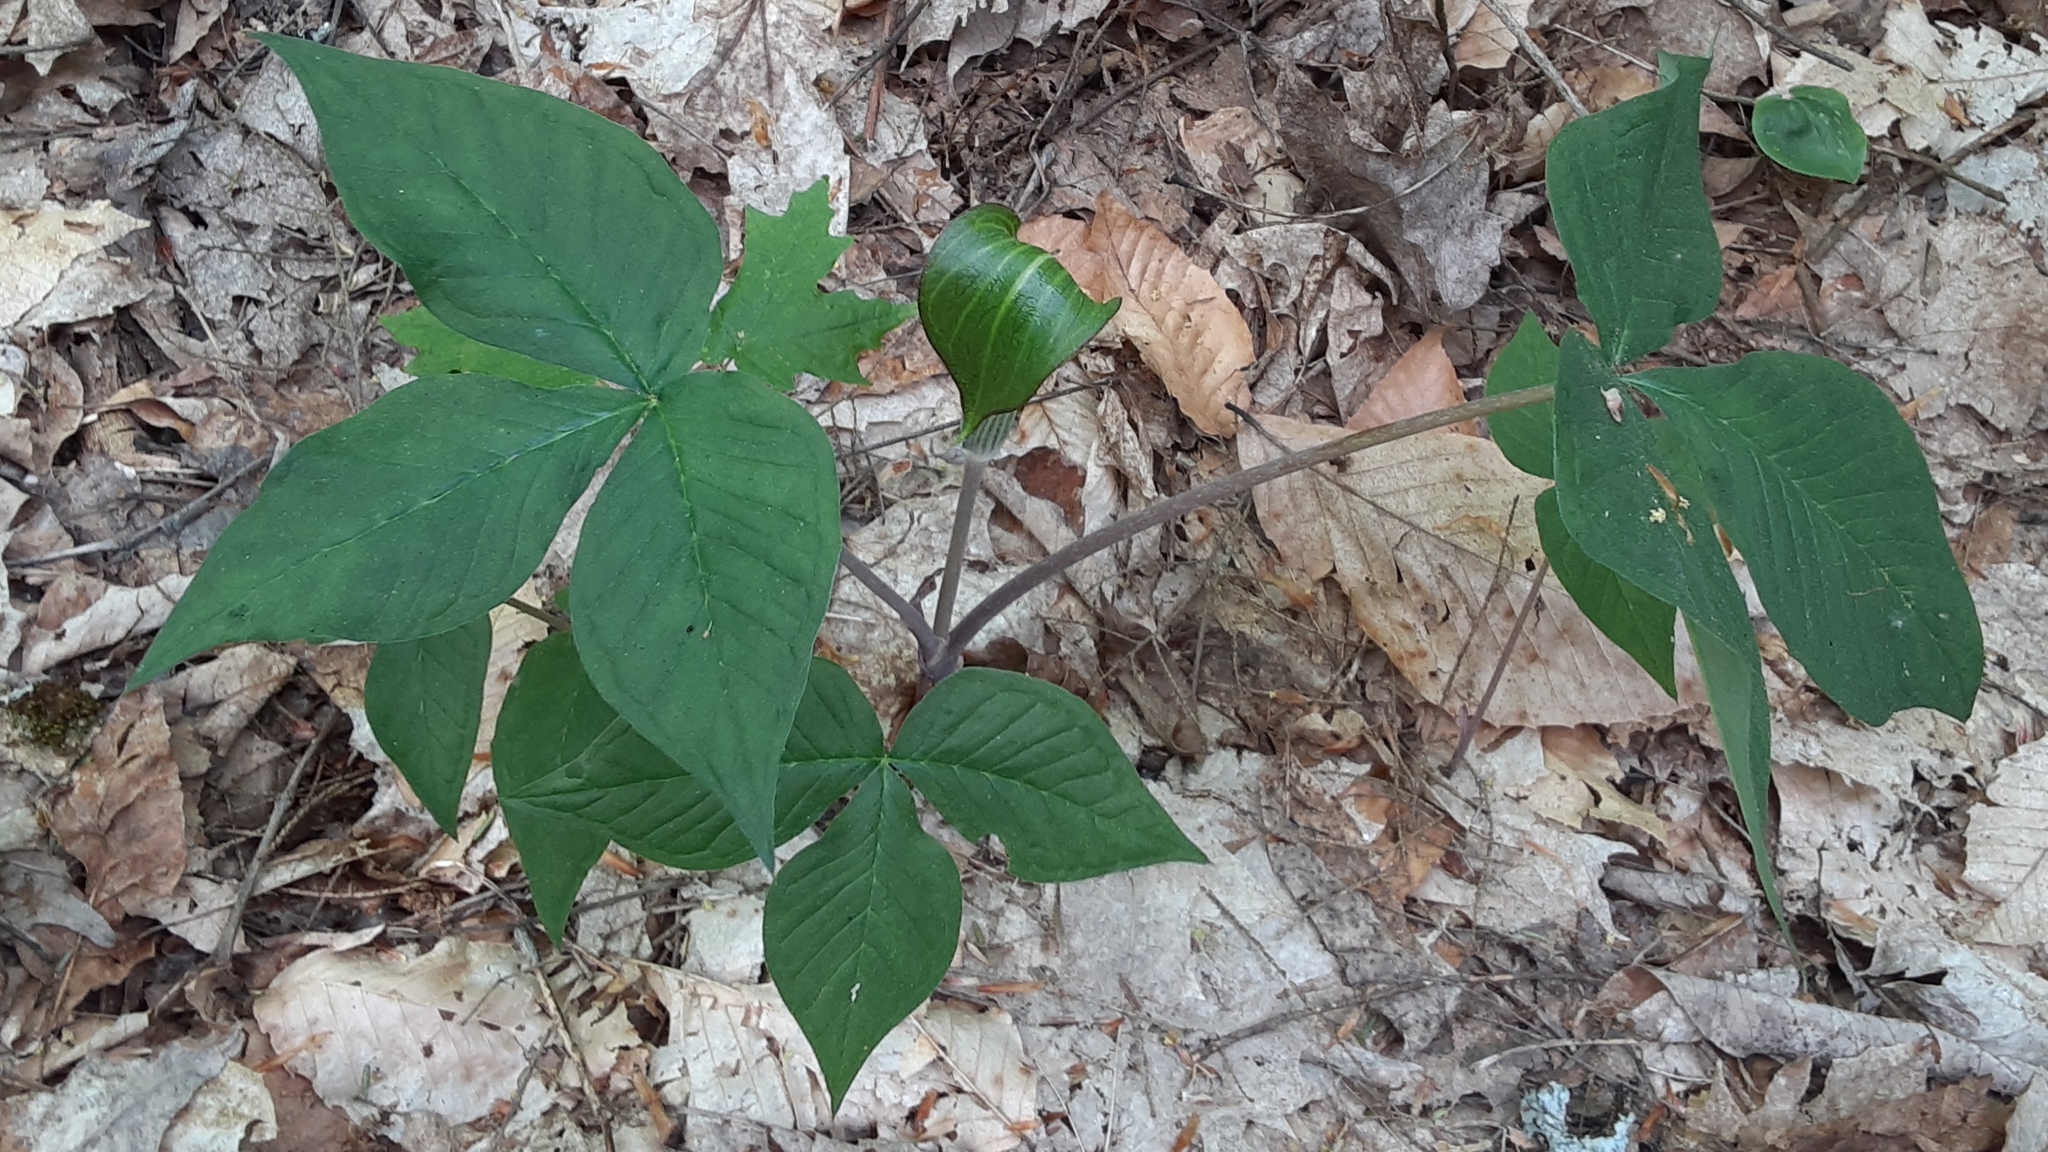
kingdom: Plantae
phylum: Tracheophyta
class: Liliopsida
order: Alismatales
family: Araceae
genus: Arisaema
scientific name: Arisaema triphyllum
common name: Jack-in-the-pulpit
